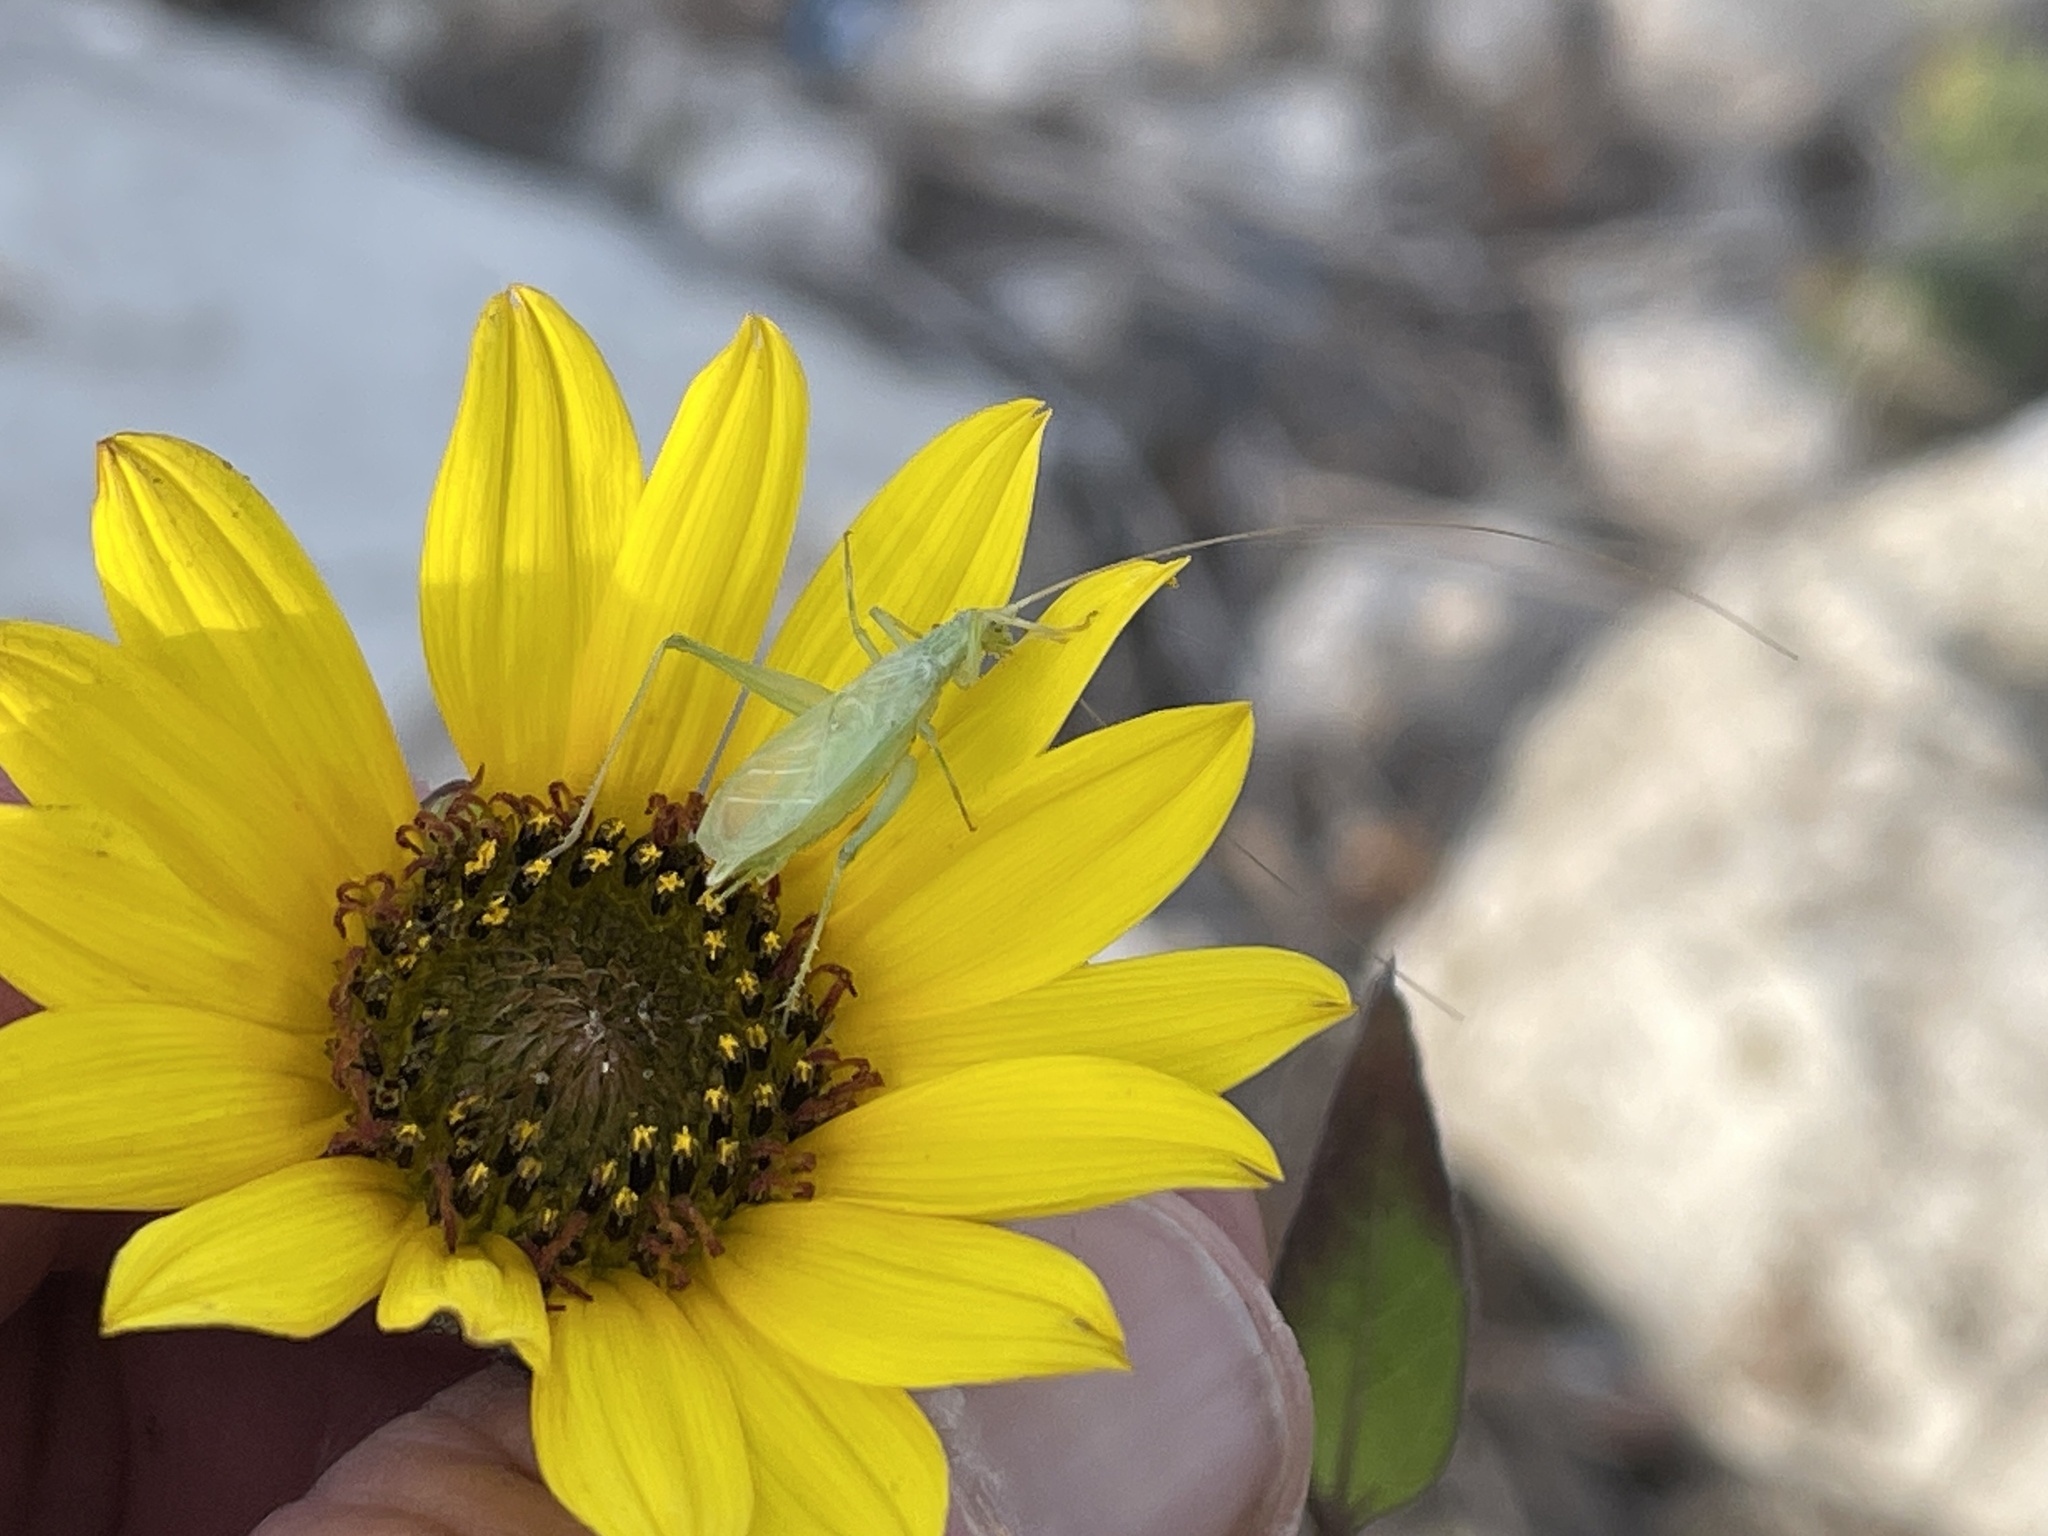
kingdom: Animalia
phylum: Arthropoda
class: Insecta
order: Orthoptera
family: Gryllidae
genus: Oecanthus
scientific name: Oecanthus quadripunctatus
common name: Four-spotted tree cricket
